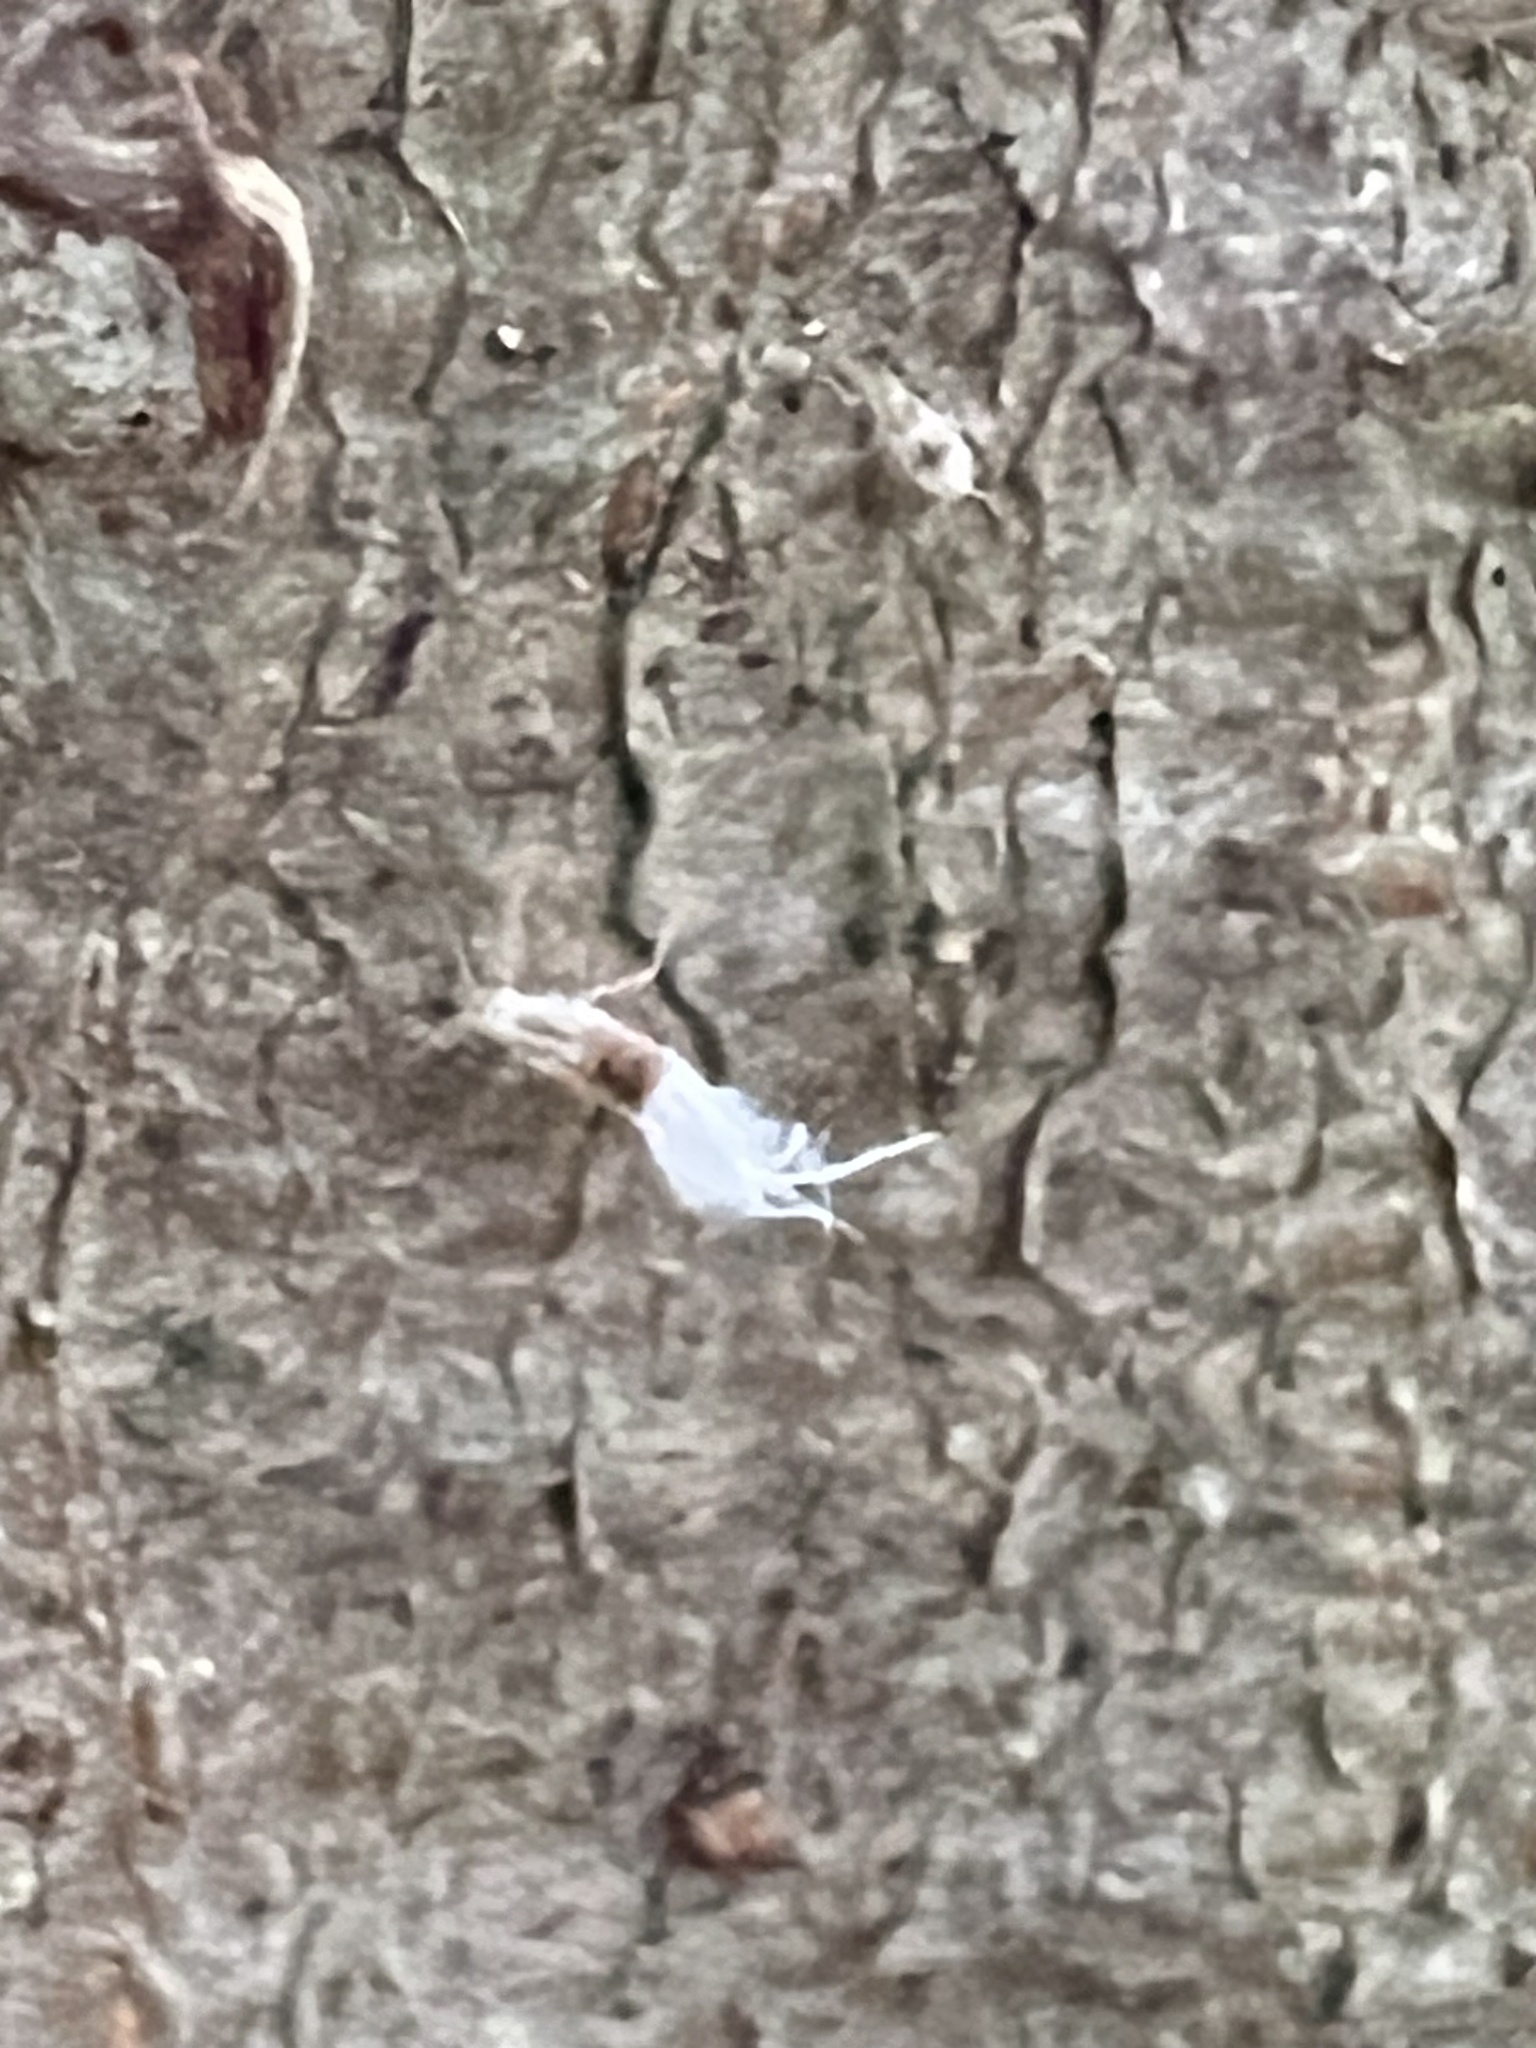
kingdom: Animalia
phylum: Arthropoda
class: Insecta
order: Hemiptera
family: Aphididae
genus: Grylloprociphilus
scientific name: Grylloprociphilus imbricator
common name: Beech blight aphid
